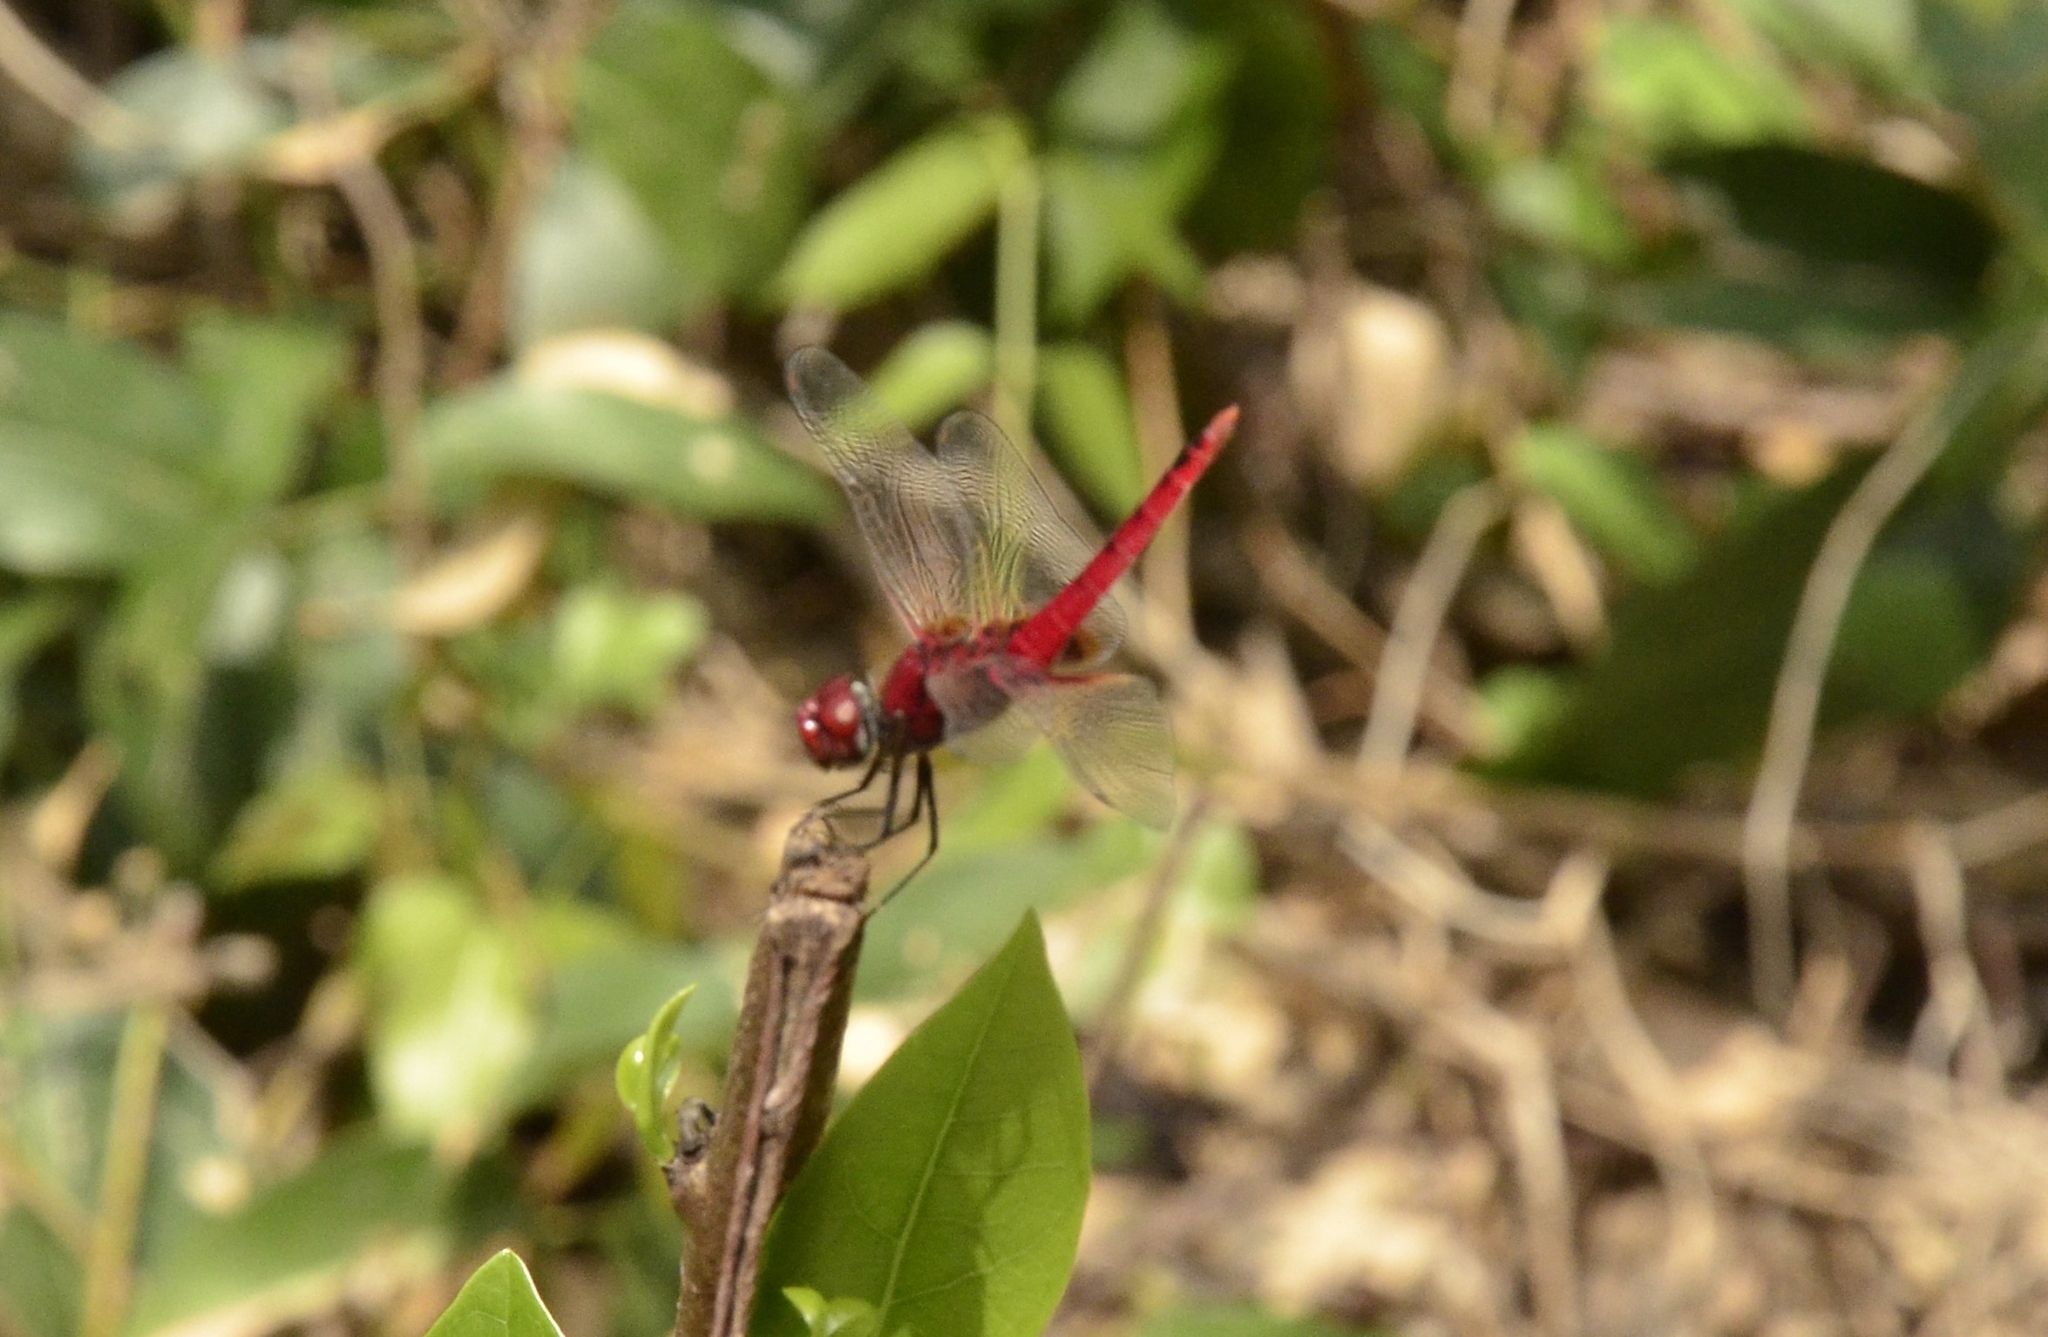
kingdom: Animalia
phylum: Arthropoda
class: Insecta
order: Odonata
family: Libellulidae
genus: Urothemis
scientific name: Urothemis signata
